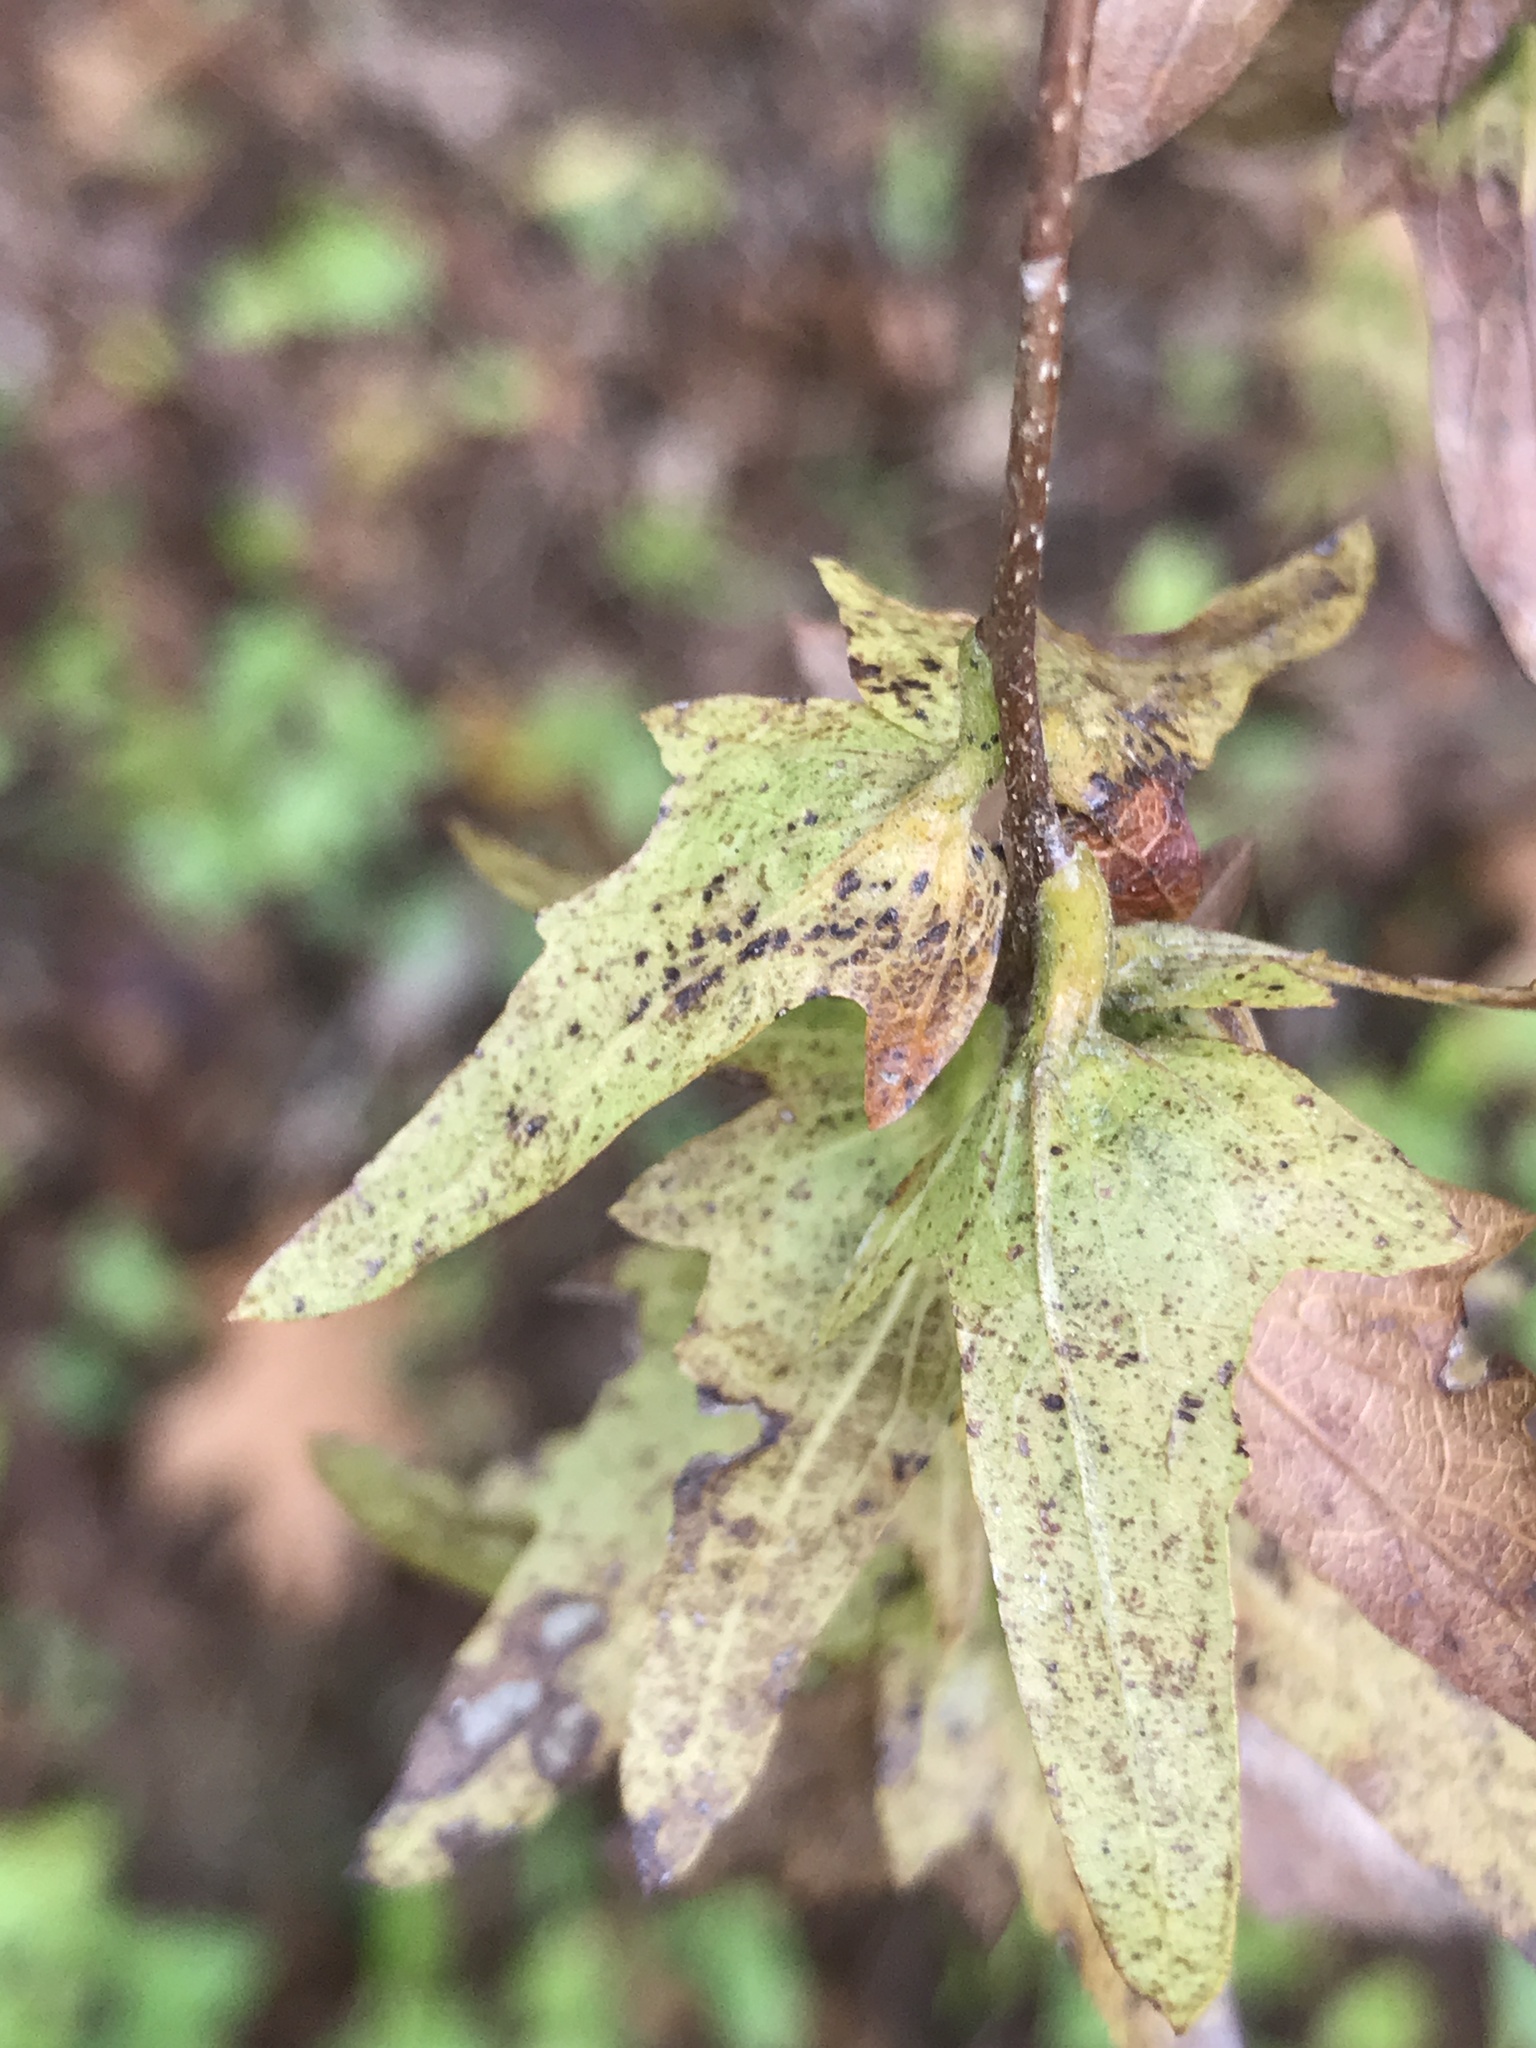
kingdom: Plantae
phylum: Tracheophyta
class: Magnoliopsida
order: Fagales
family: Betulaceae
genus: Carpinus
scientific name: Carpinus caroliniana
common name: American hornbeam
